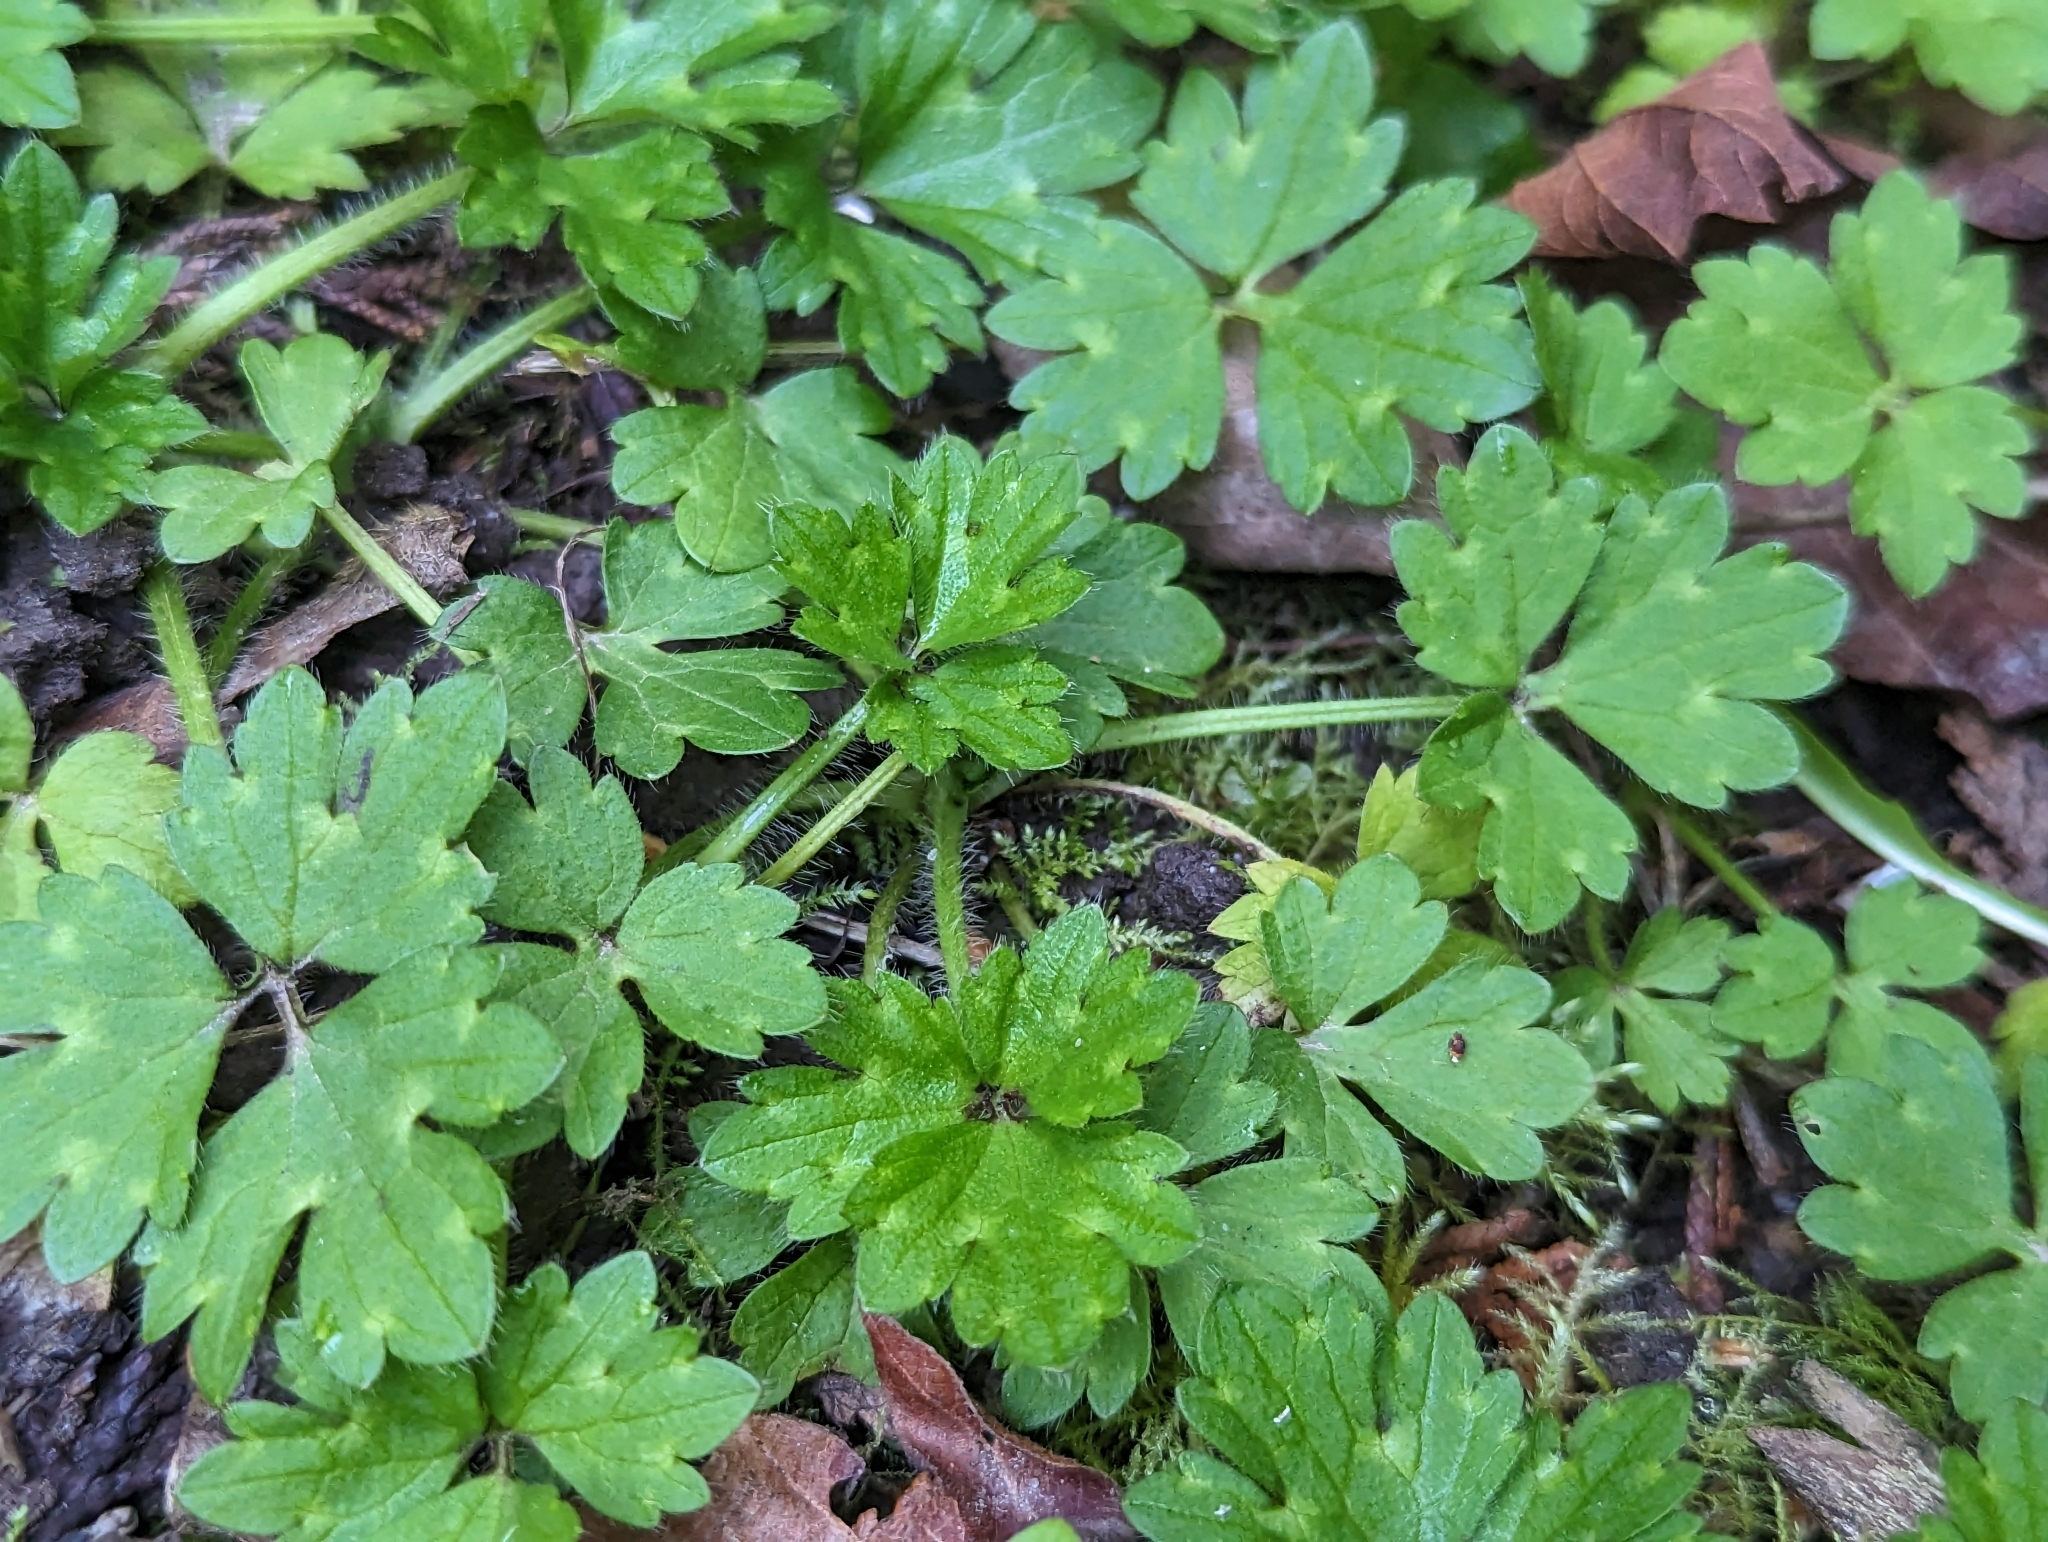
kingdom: Plantae
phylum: Tracheophyta
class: Magnoliopsida
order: Ranunculales
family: Ranunculaceae
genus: Ranunculus
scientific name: Ranunculus repens
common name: Creeping buttercup
